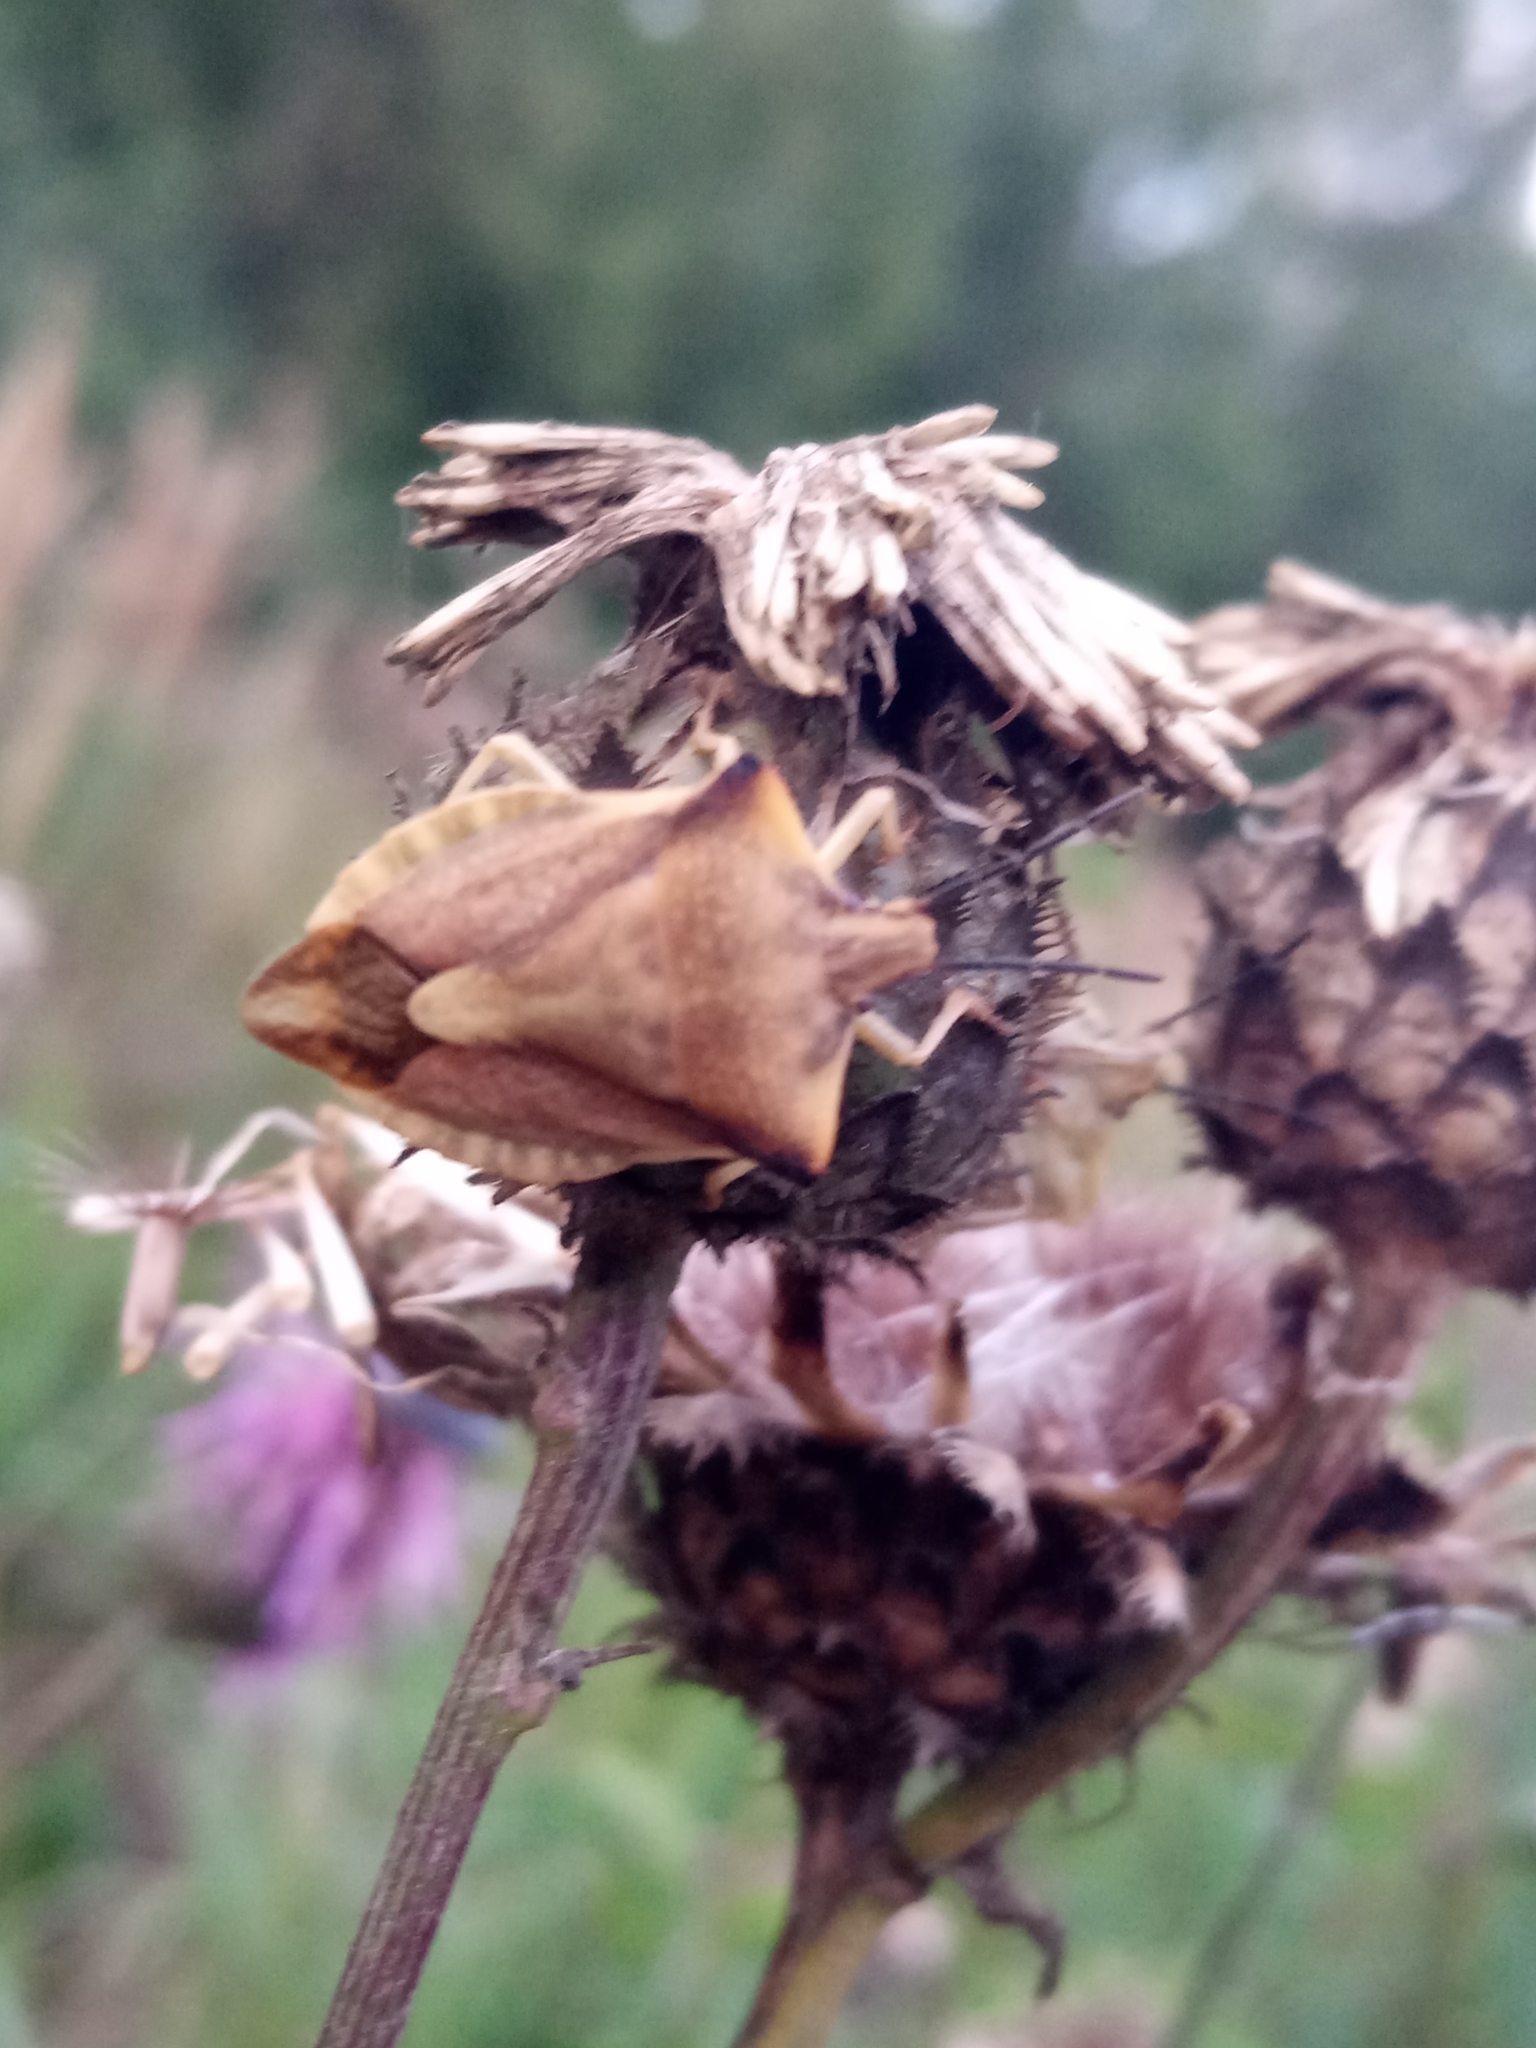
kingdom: Animalia
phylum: Arthropoda
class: Insecta
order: Hemiptera
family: Pentatomidae
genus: Carpocoris
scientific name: Carpocoris fuscispinus
